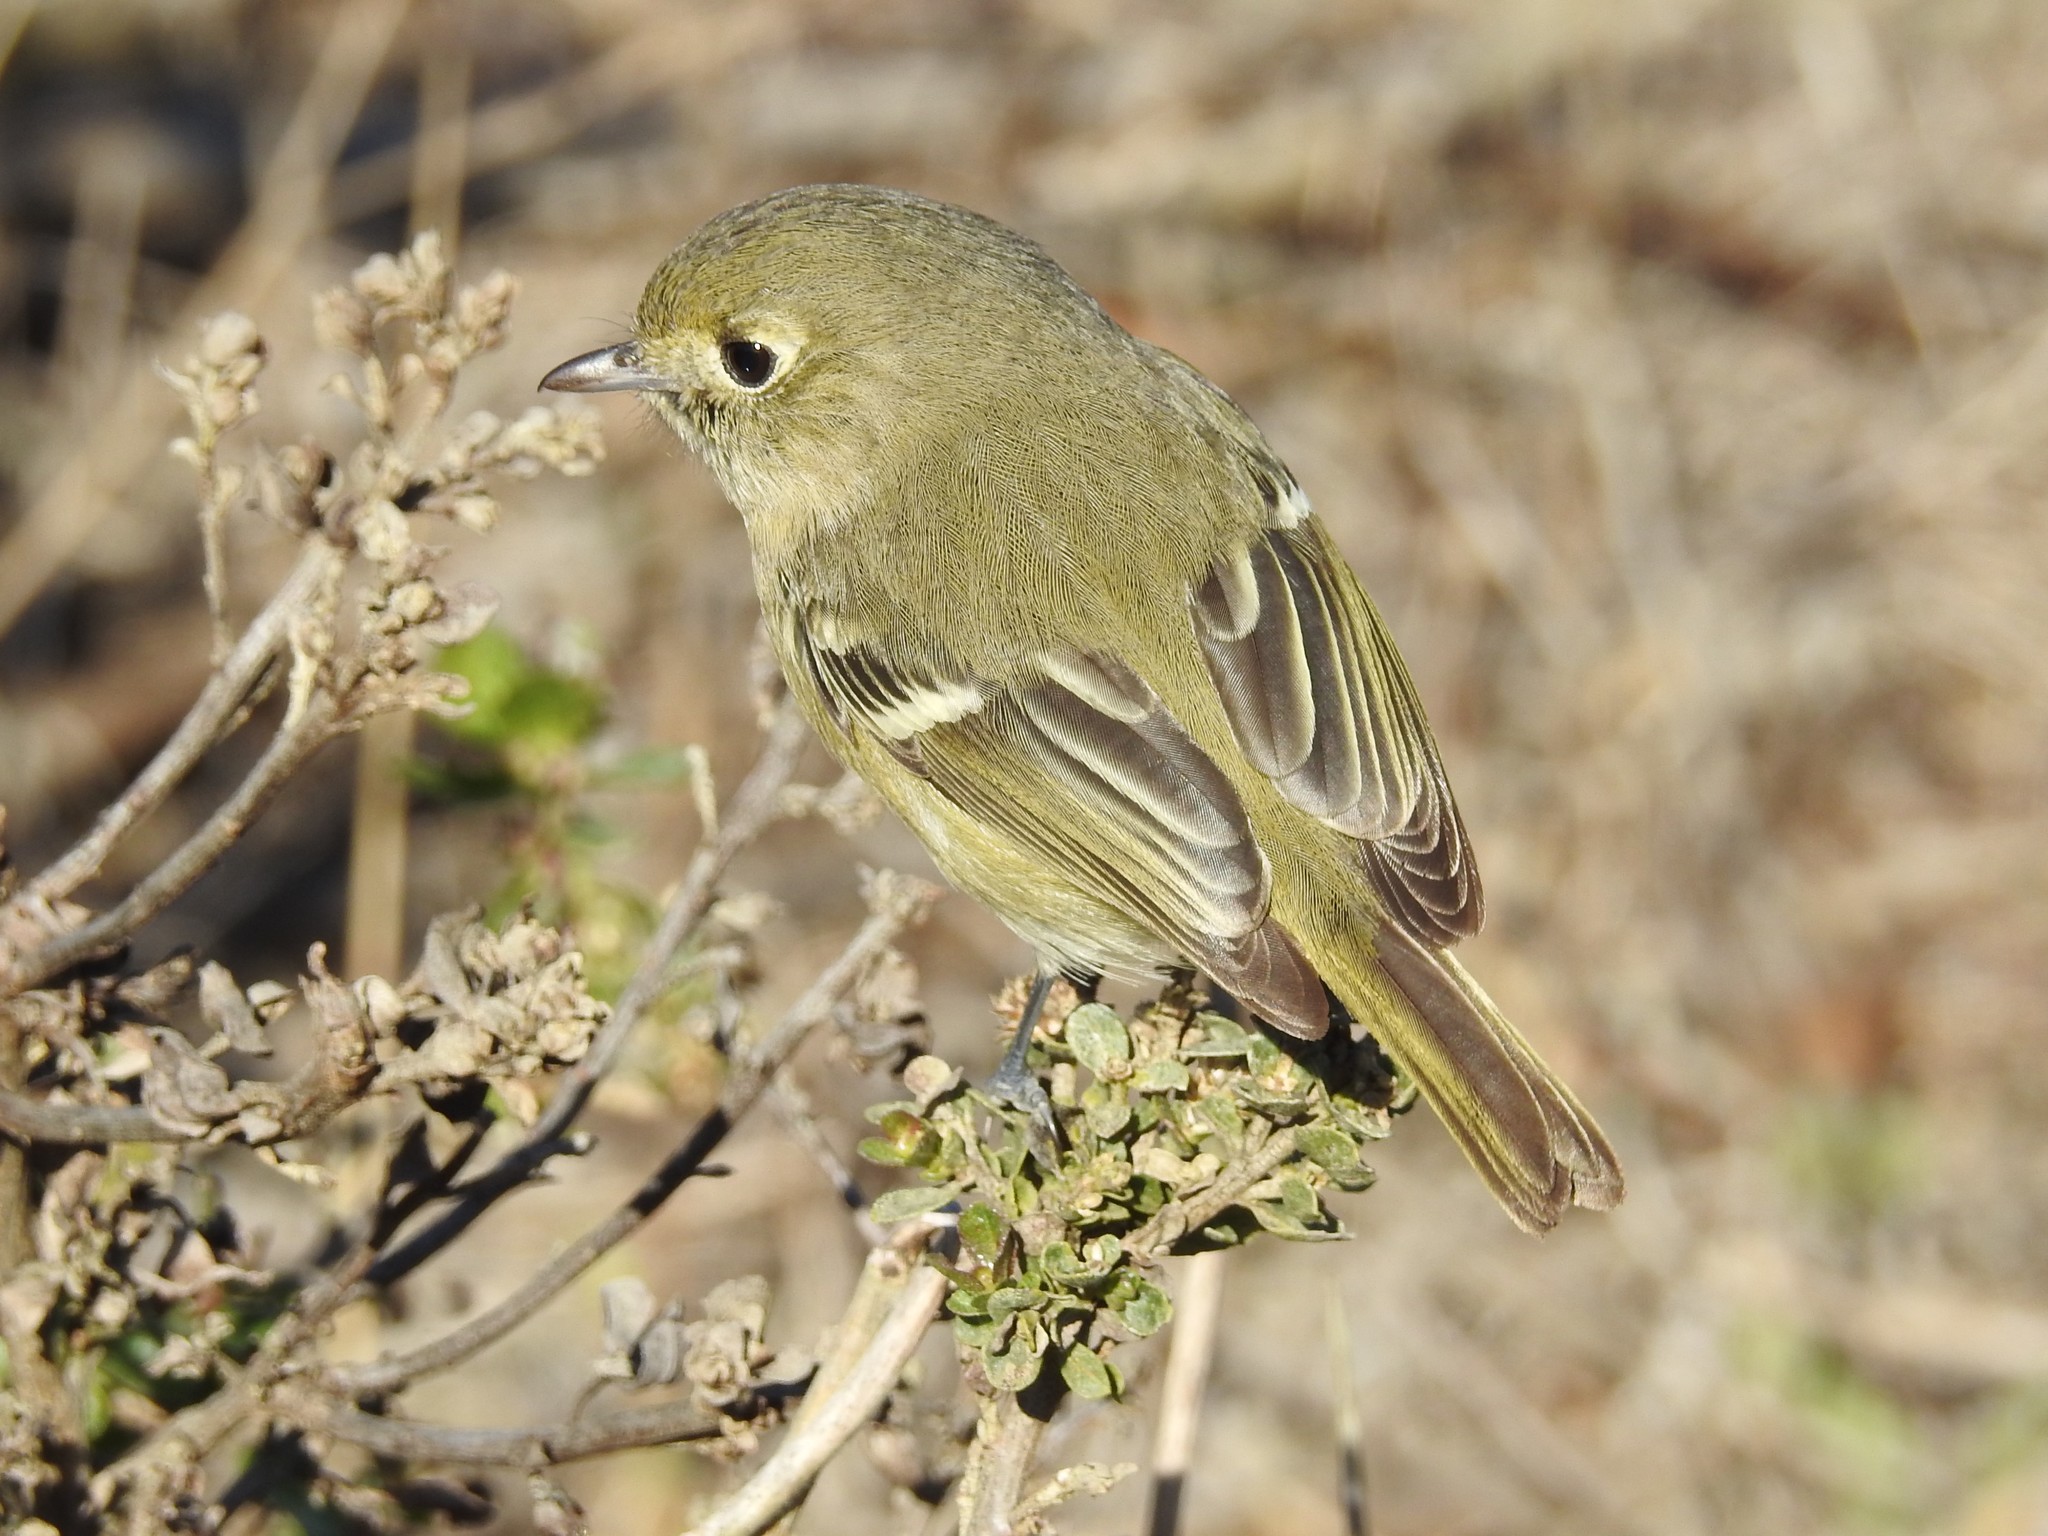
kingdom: Animalia
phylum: Chordata
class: Aves
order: Passeriformes
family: Vireonidae
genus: Vireo
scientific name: Vireo huttoni
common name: Hutton's vireo
